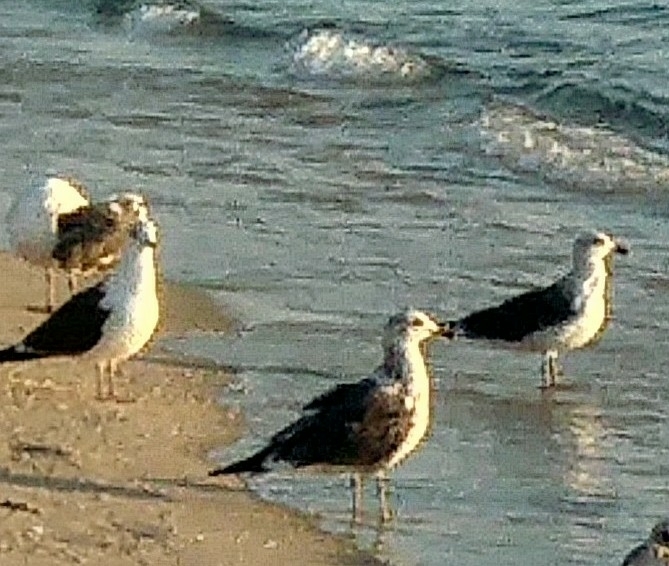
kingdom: Animalia
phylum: Chordata
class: Aves
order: Charadriiformes
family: Laridae
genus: Larus
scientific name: Larus fuscus
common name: Lesser black-backed gull
